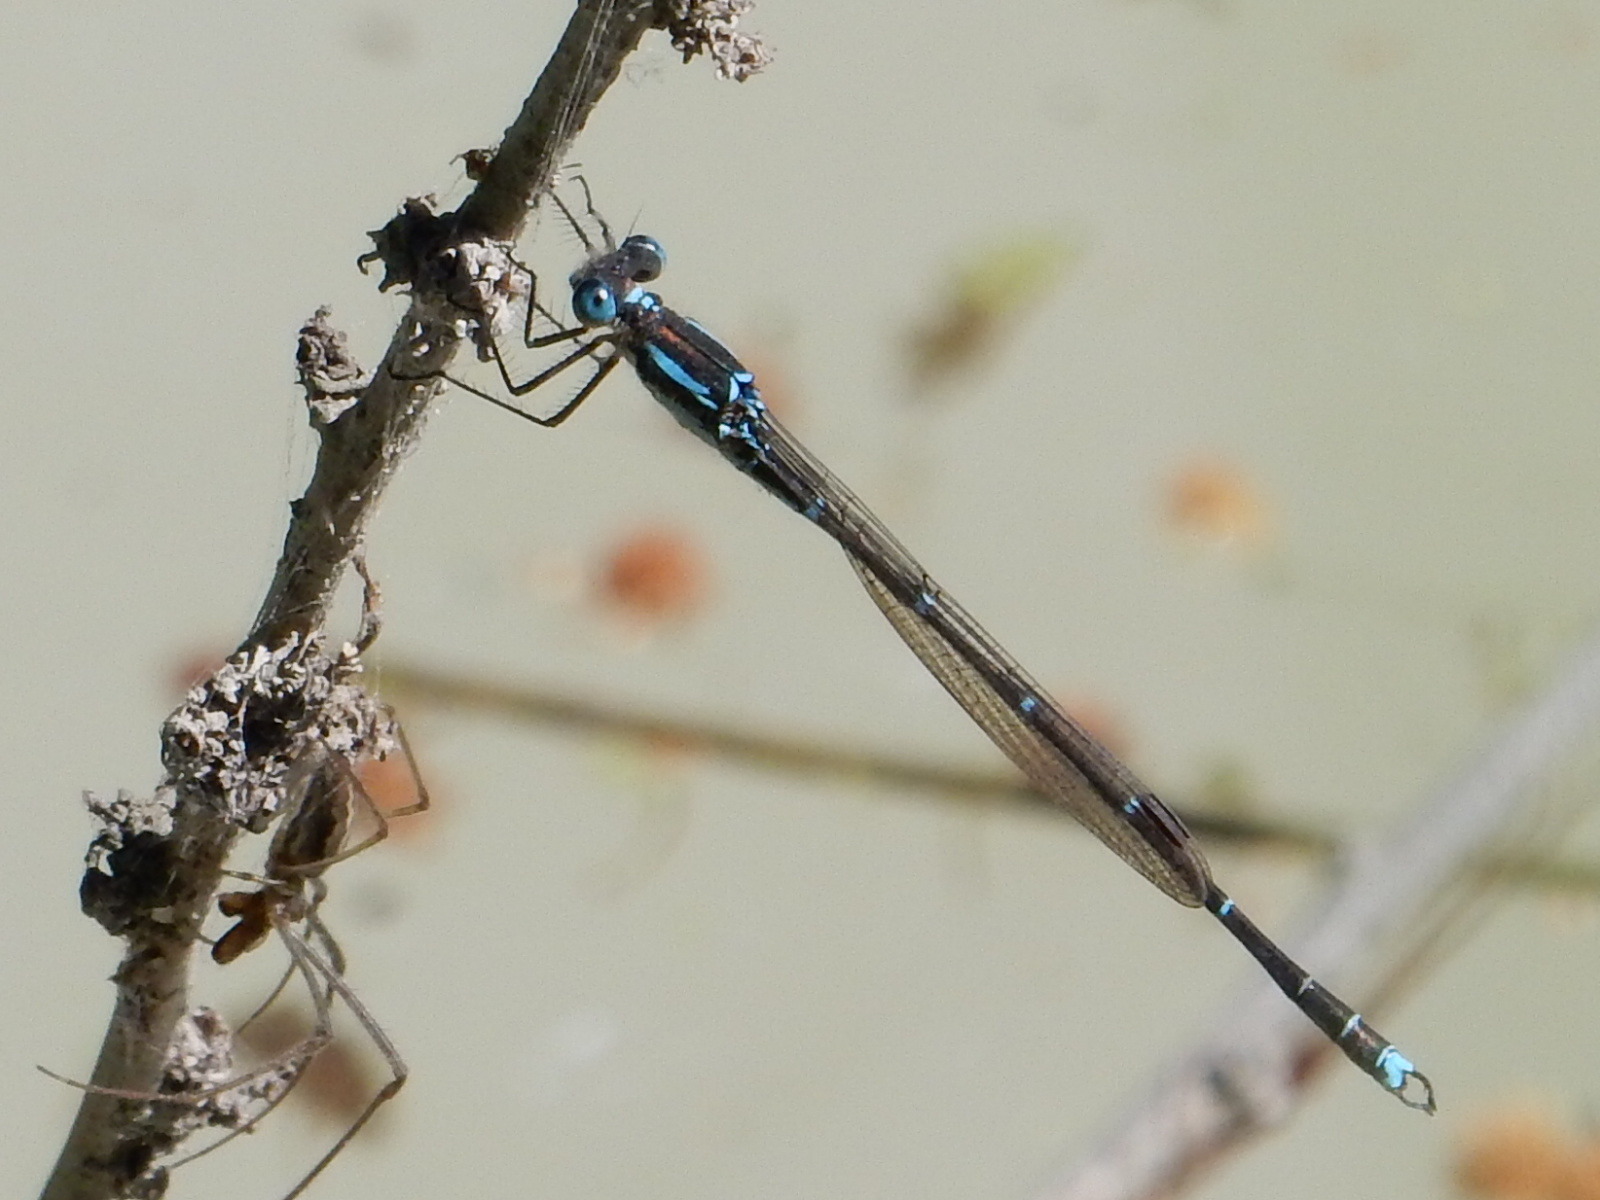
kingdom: Animalia
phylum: Arthropoda
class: Insecta
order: Odonata
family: Lestidae
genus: Austrolestes
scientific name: Austrolestes colensonis
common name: Blue damselfly
